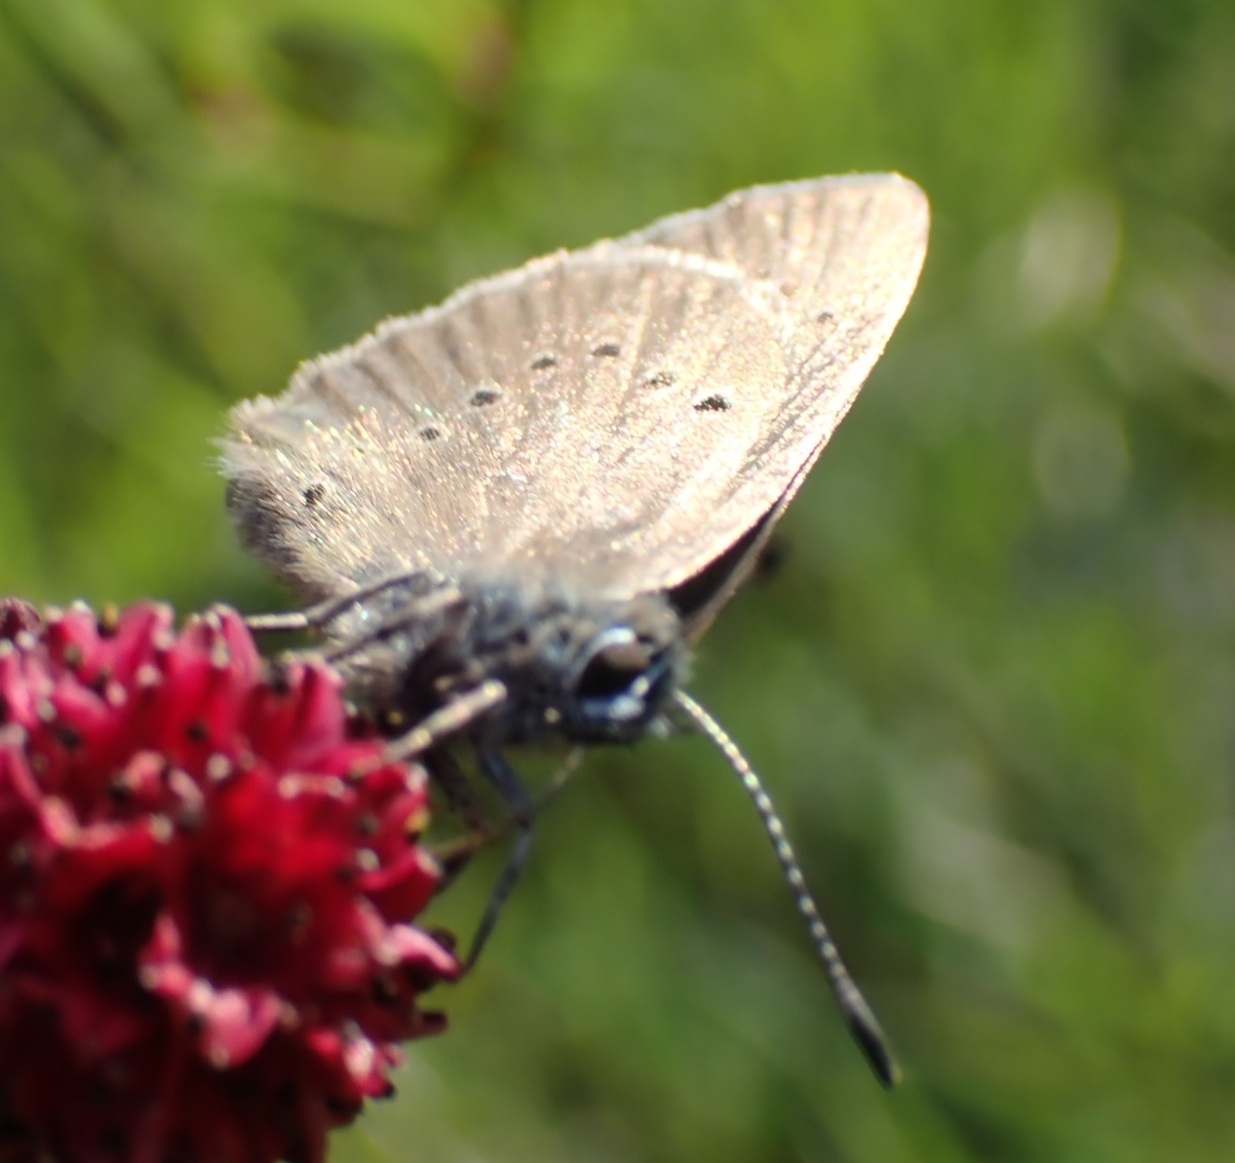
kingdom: Animalia
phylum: Arthropoda
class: Insecta
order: Lepidoptera
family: Lycaenidae
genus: Maculinea
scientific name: Maculinea nausithous
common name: Dusky large blue
